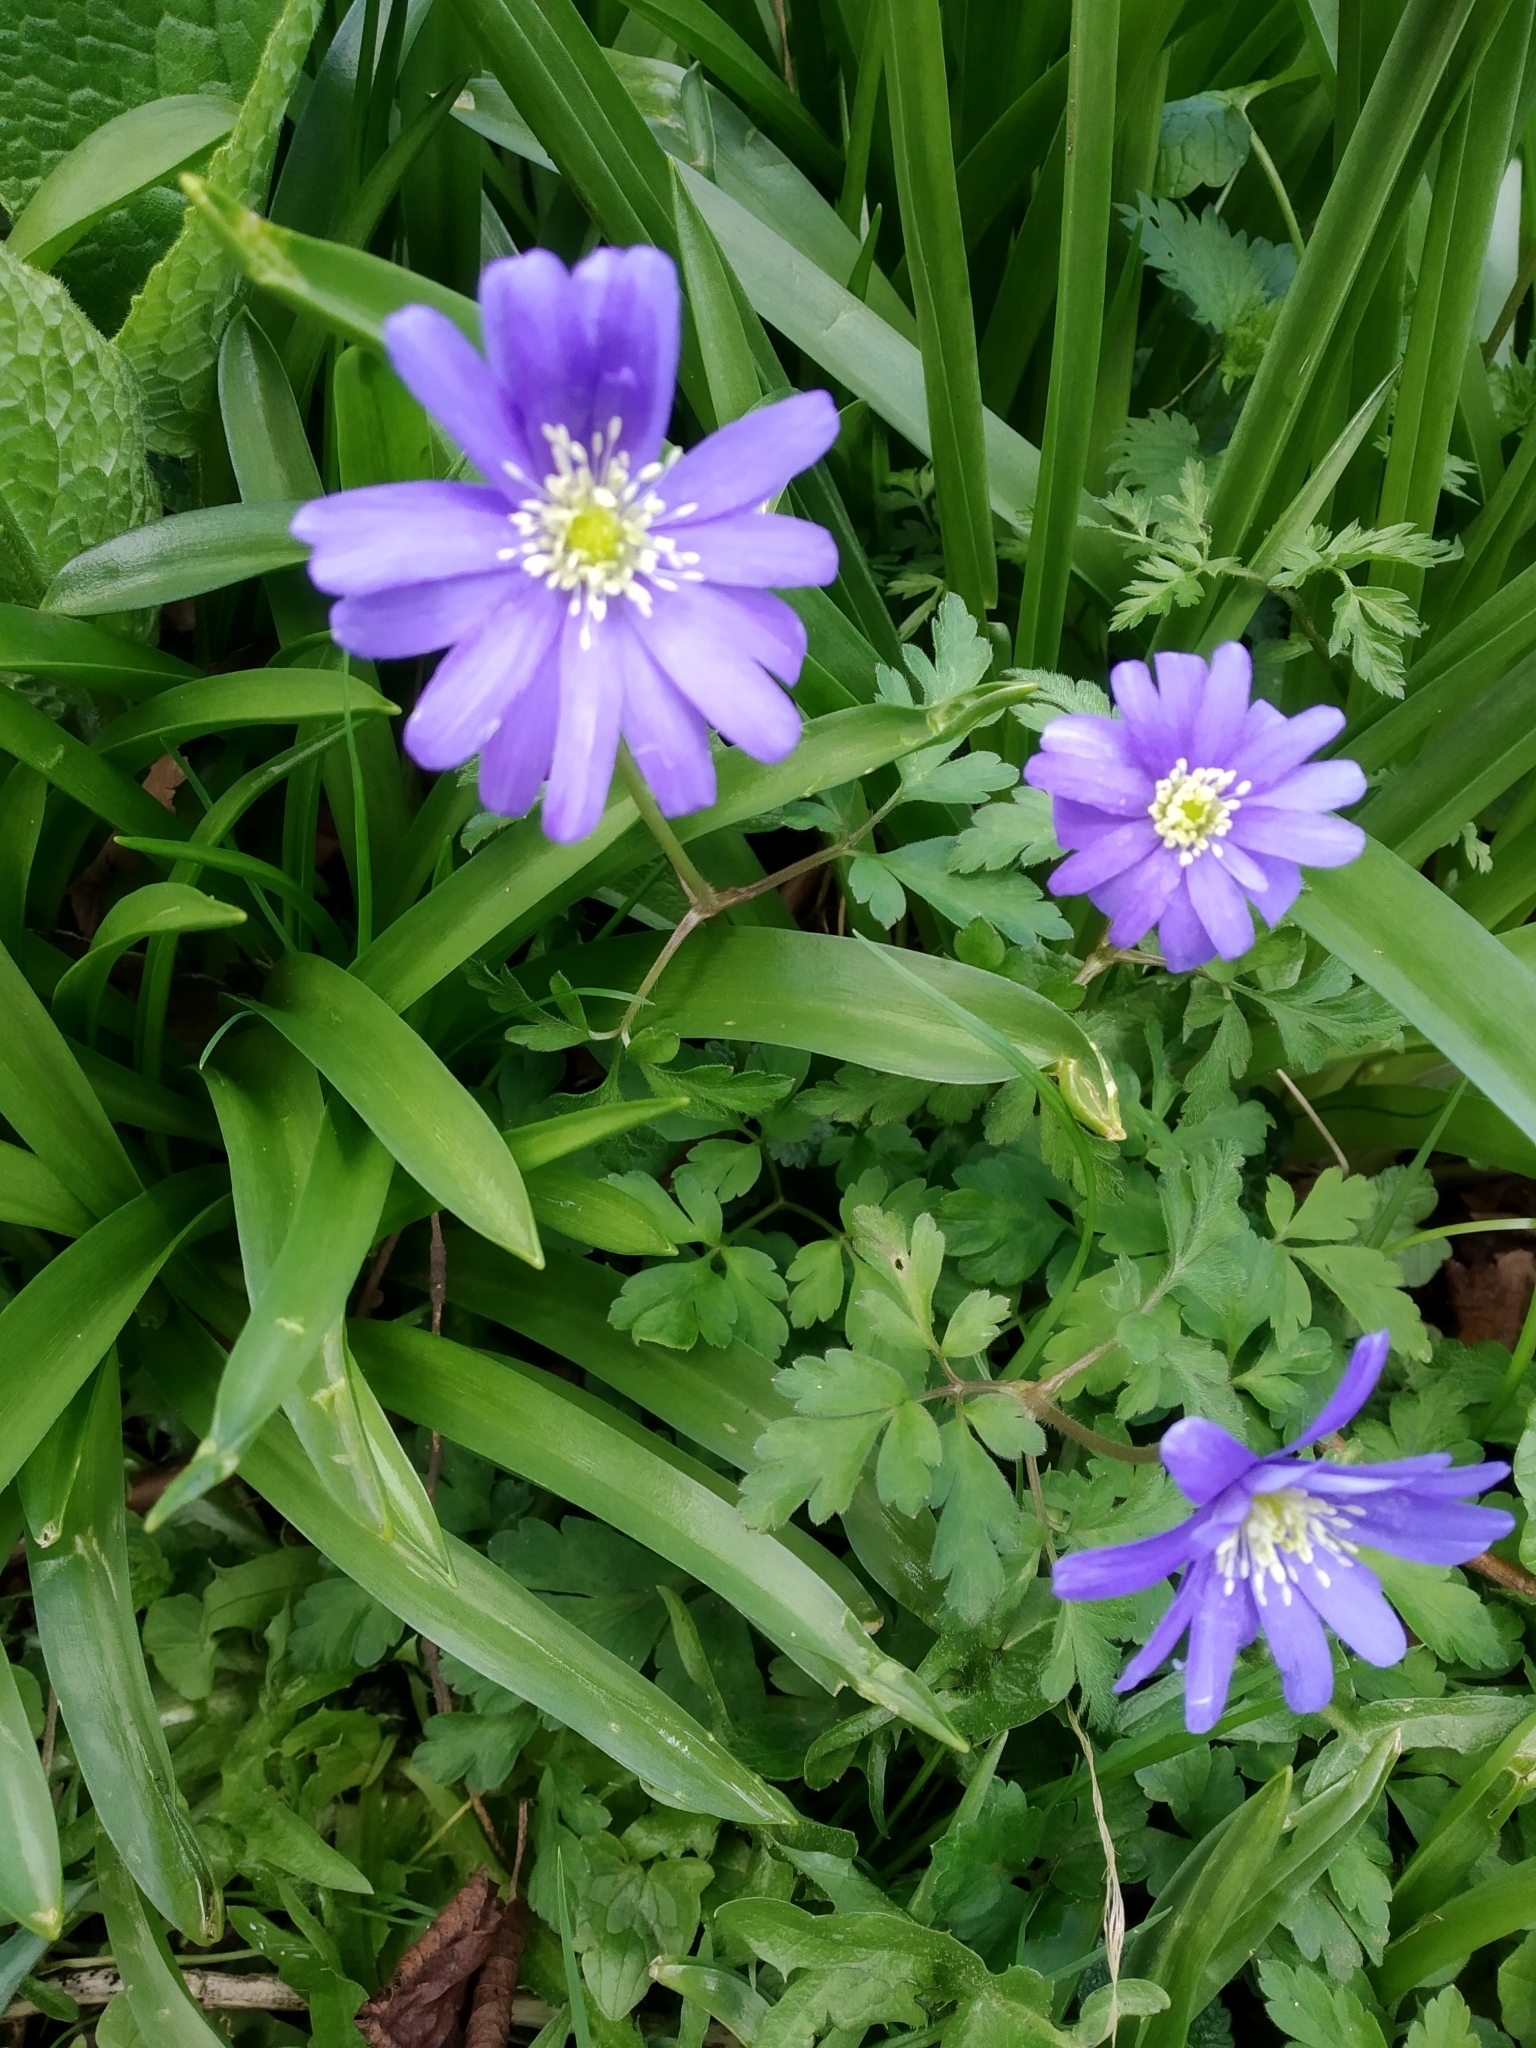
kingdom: Plantae
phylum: Tracheophyta
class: Magnoliopsida
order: Ranunculales
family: Ranunculaceae
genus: Anemone
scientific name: Anemone apennina
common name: Blue anemone
